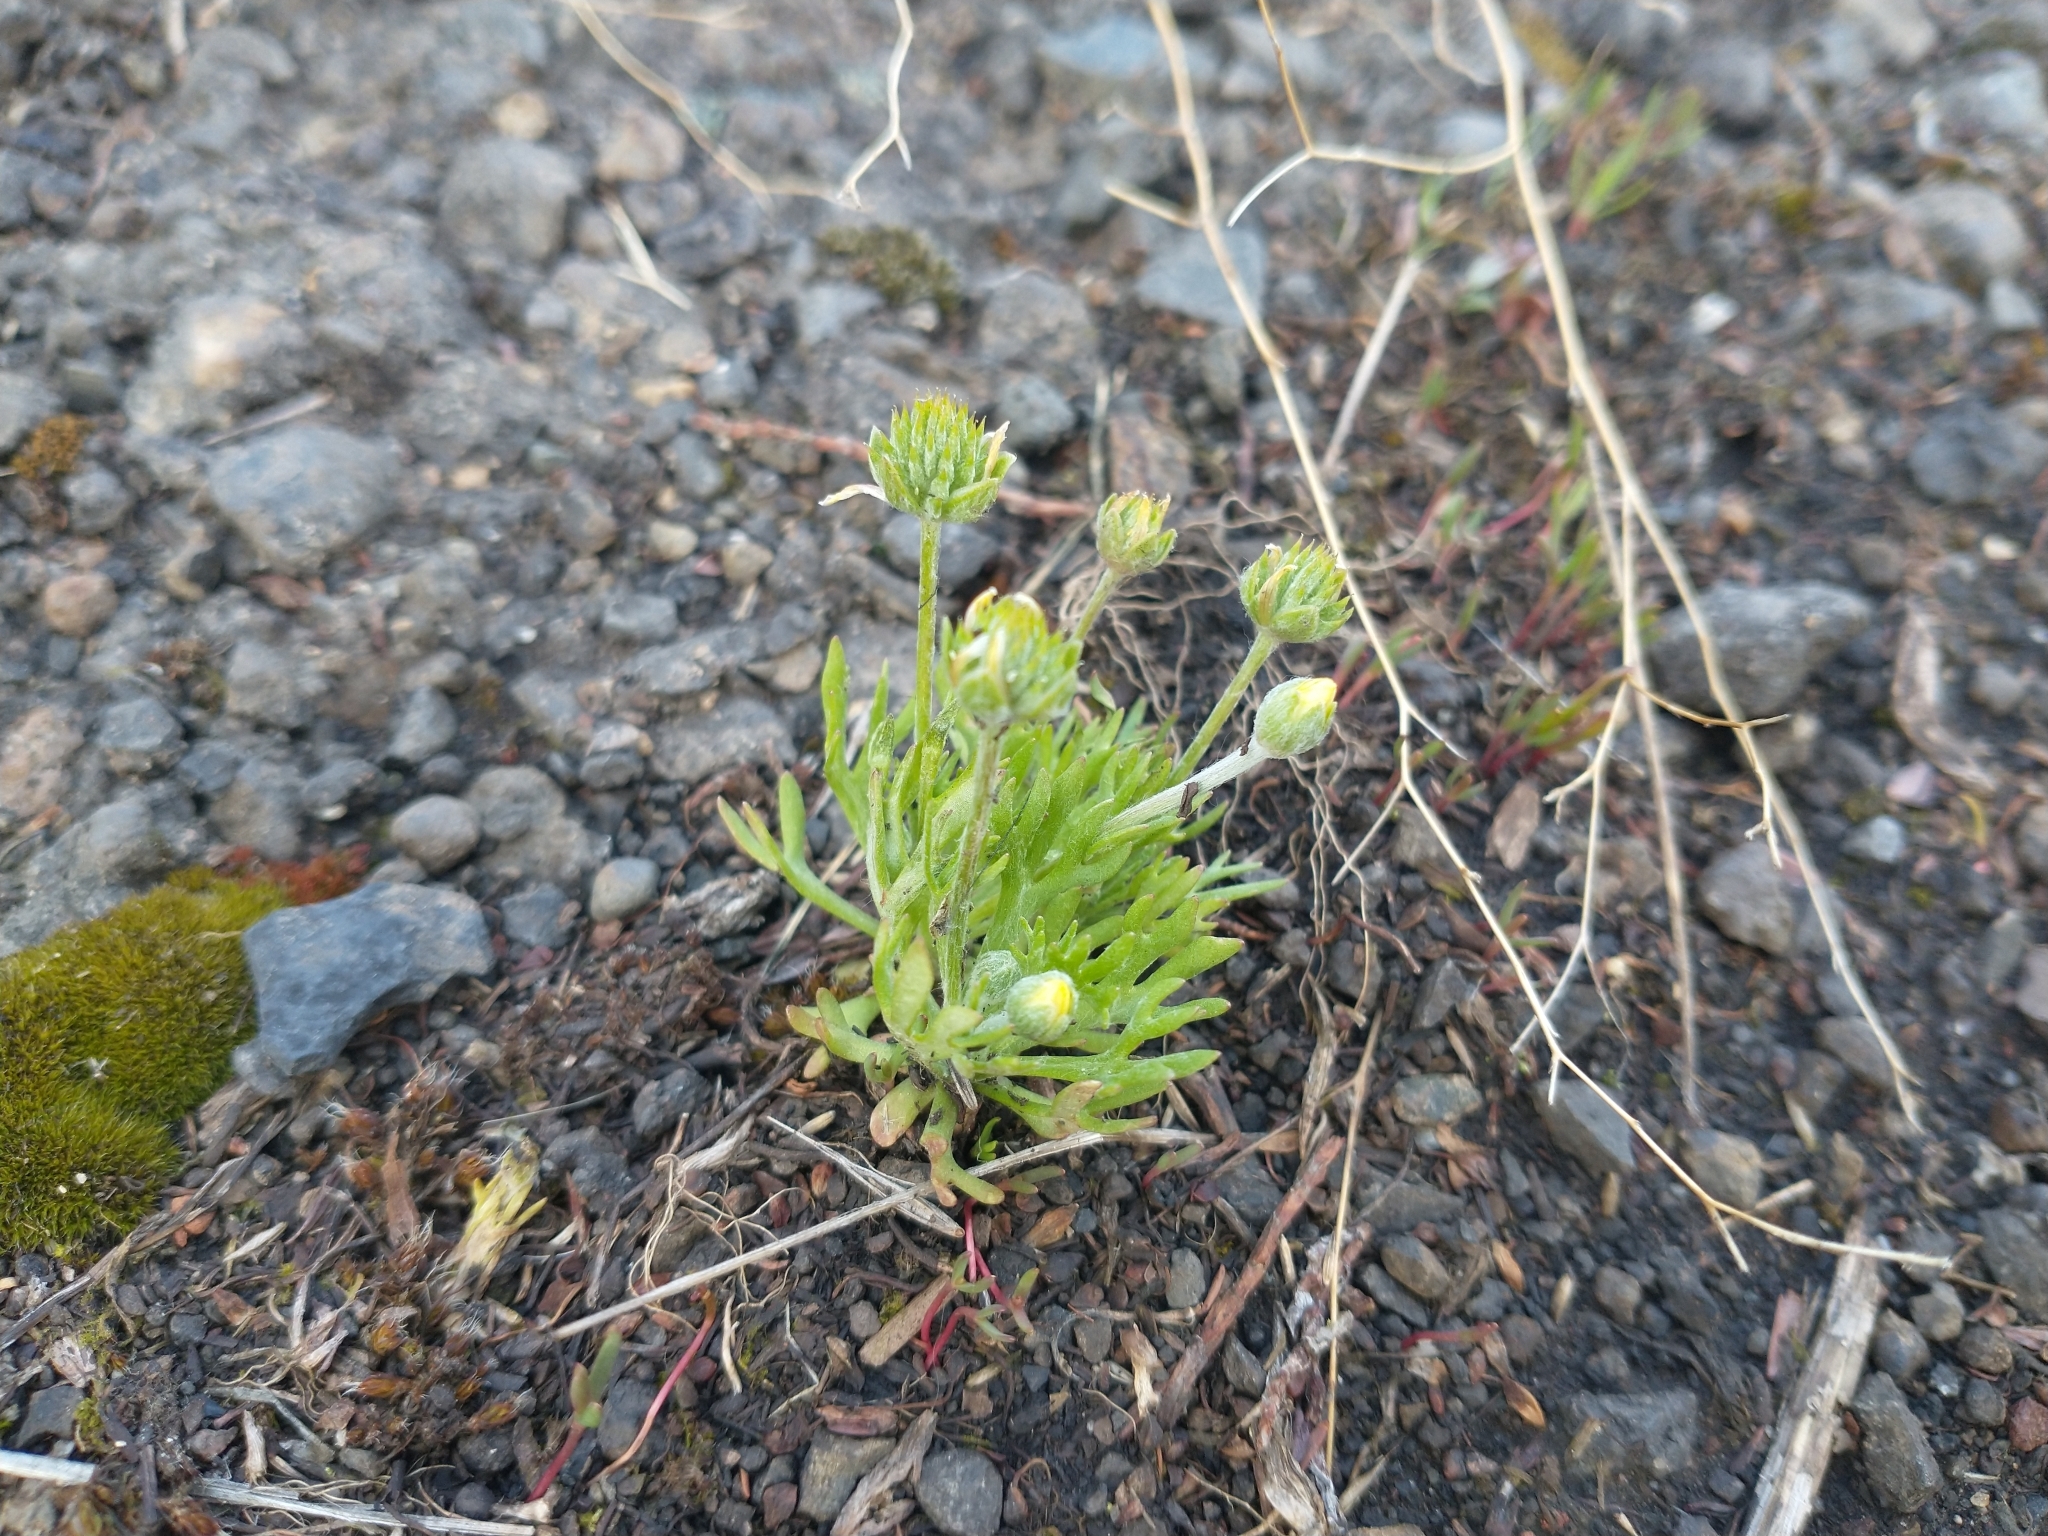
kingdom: Plantae
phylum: Tracheophyta
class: Magnoliopsida
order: Ranunculales
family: Ranunculaceae
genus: Ceratocephala
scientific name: Ceratocephala orthoceras
